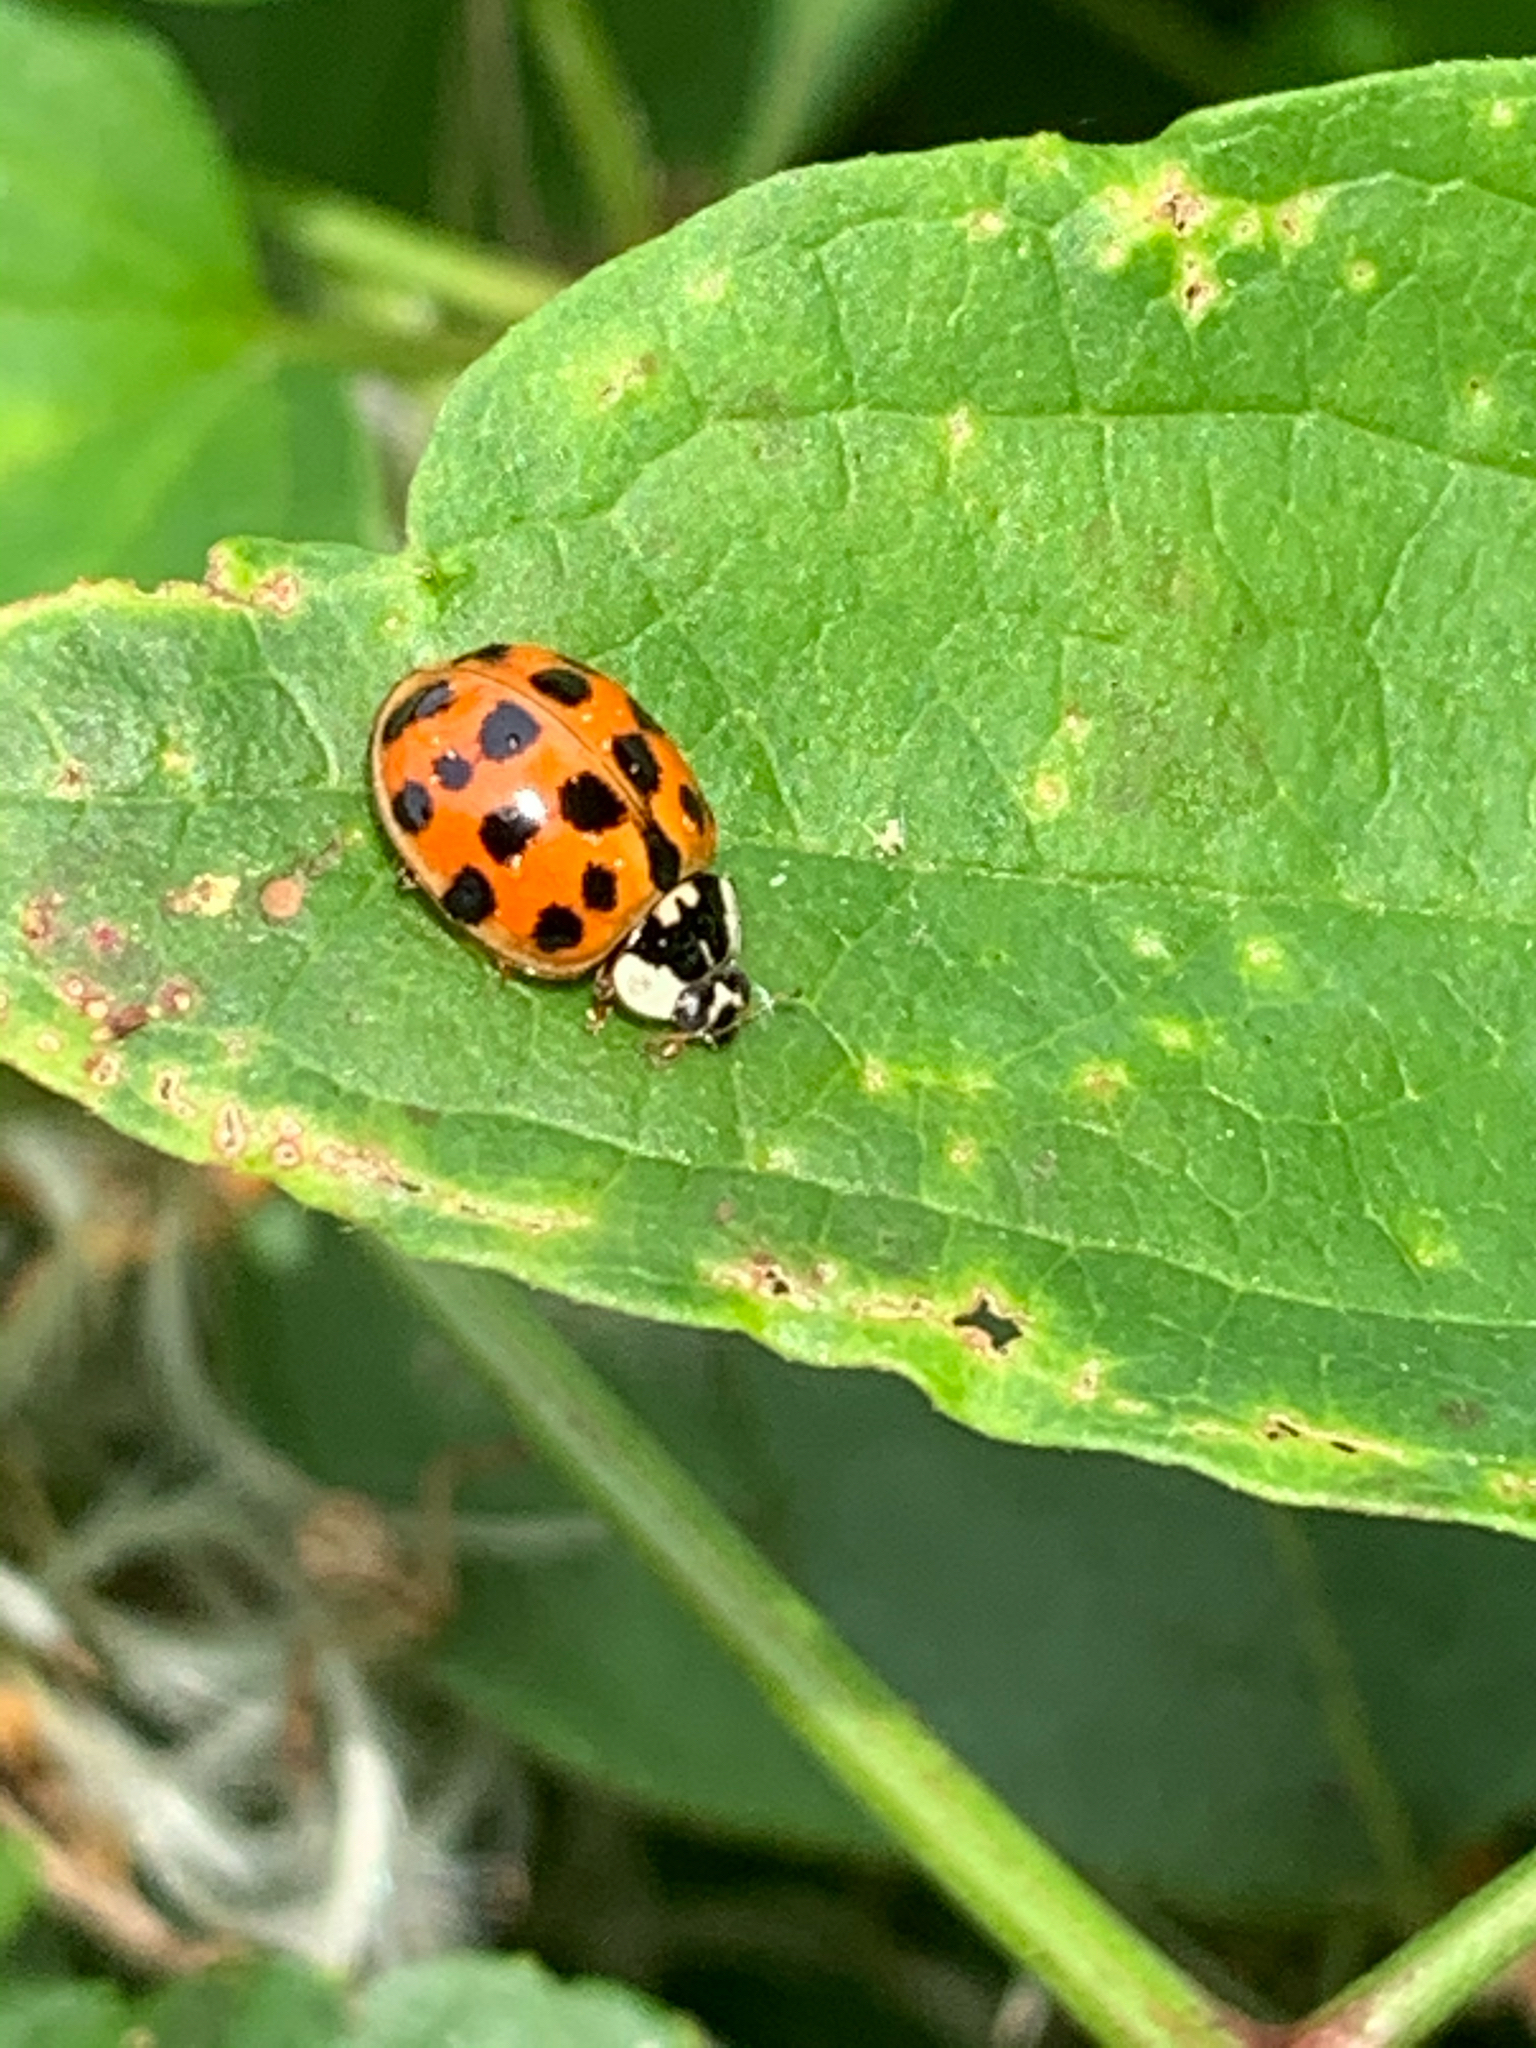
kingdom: Animalia
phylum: Arthropoda
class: Insecta
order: Coleoptera
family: Coccinellidae
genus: Harmonia
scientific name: Harmonia axyridis
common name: Harlequin ladybird
